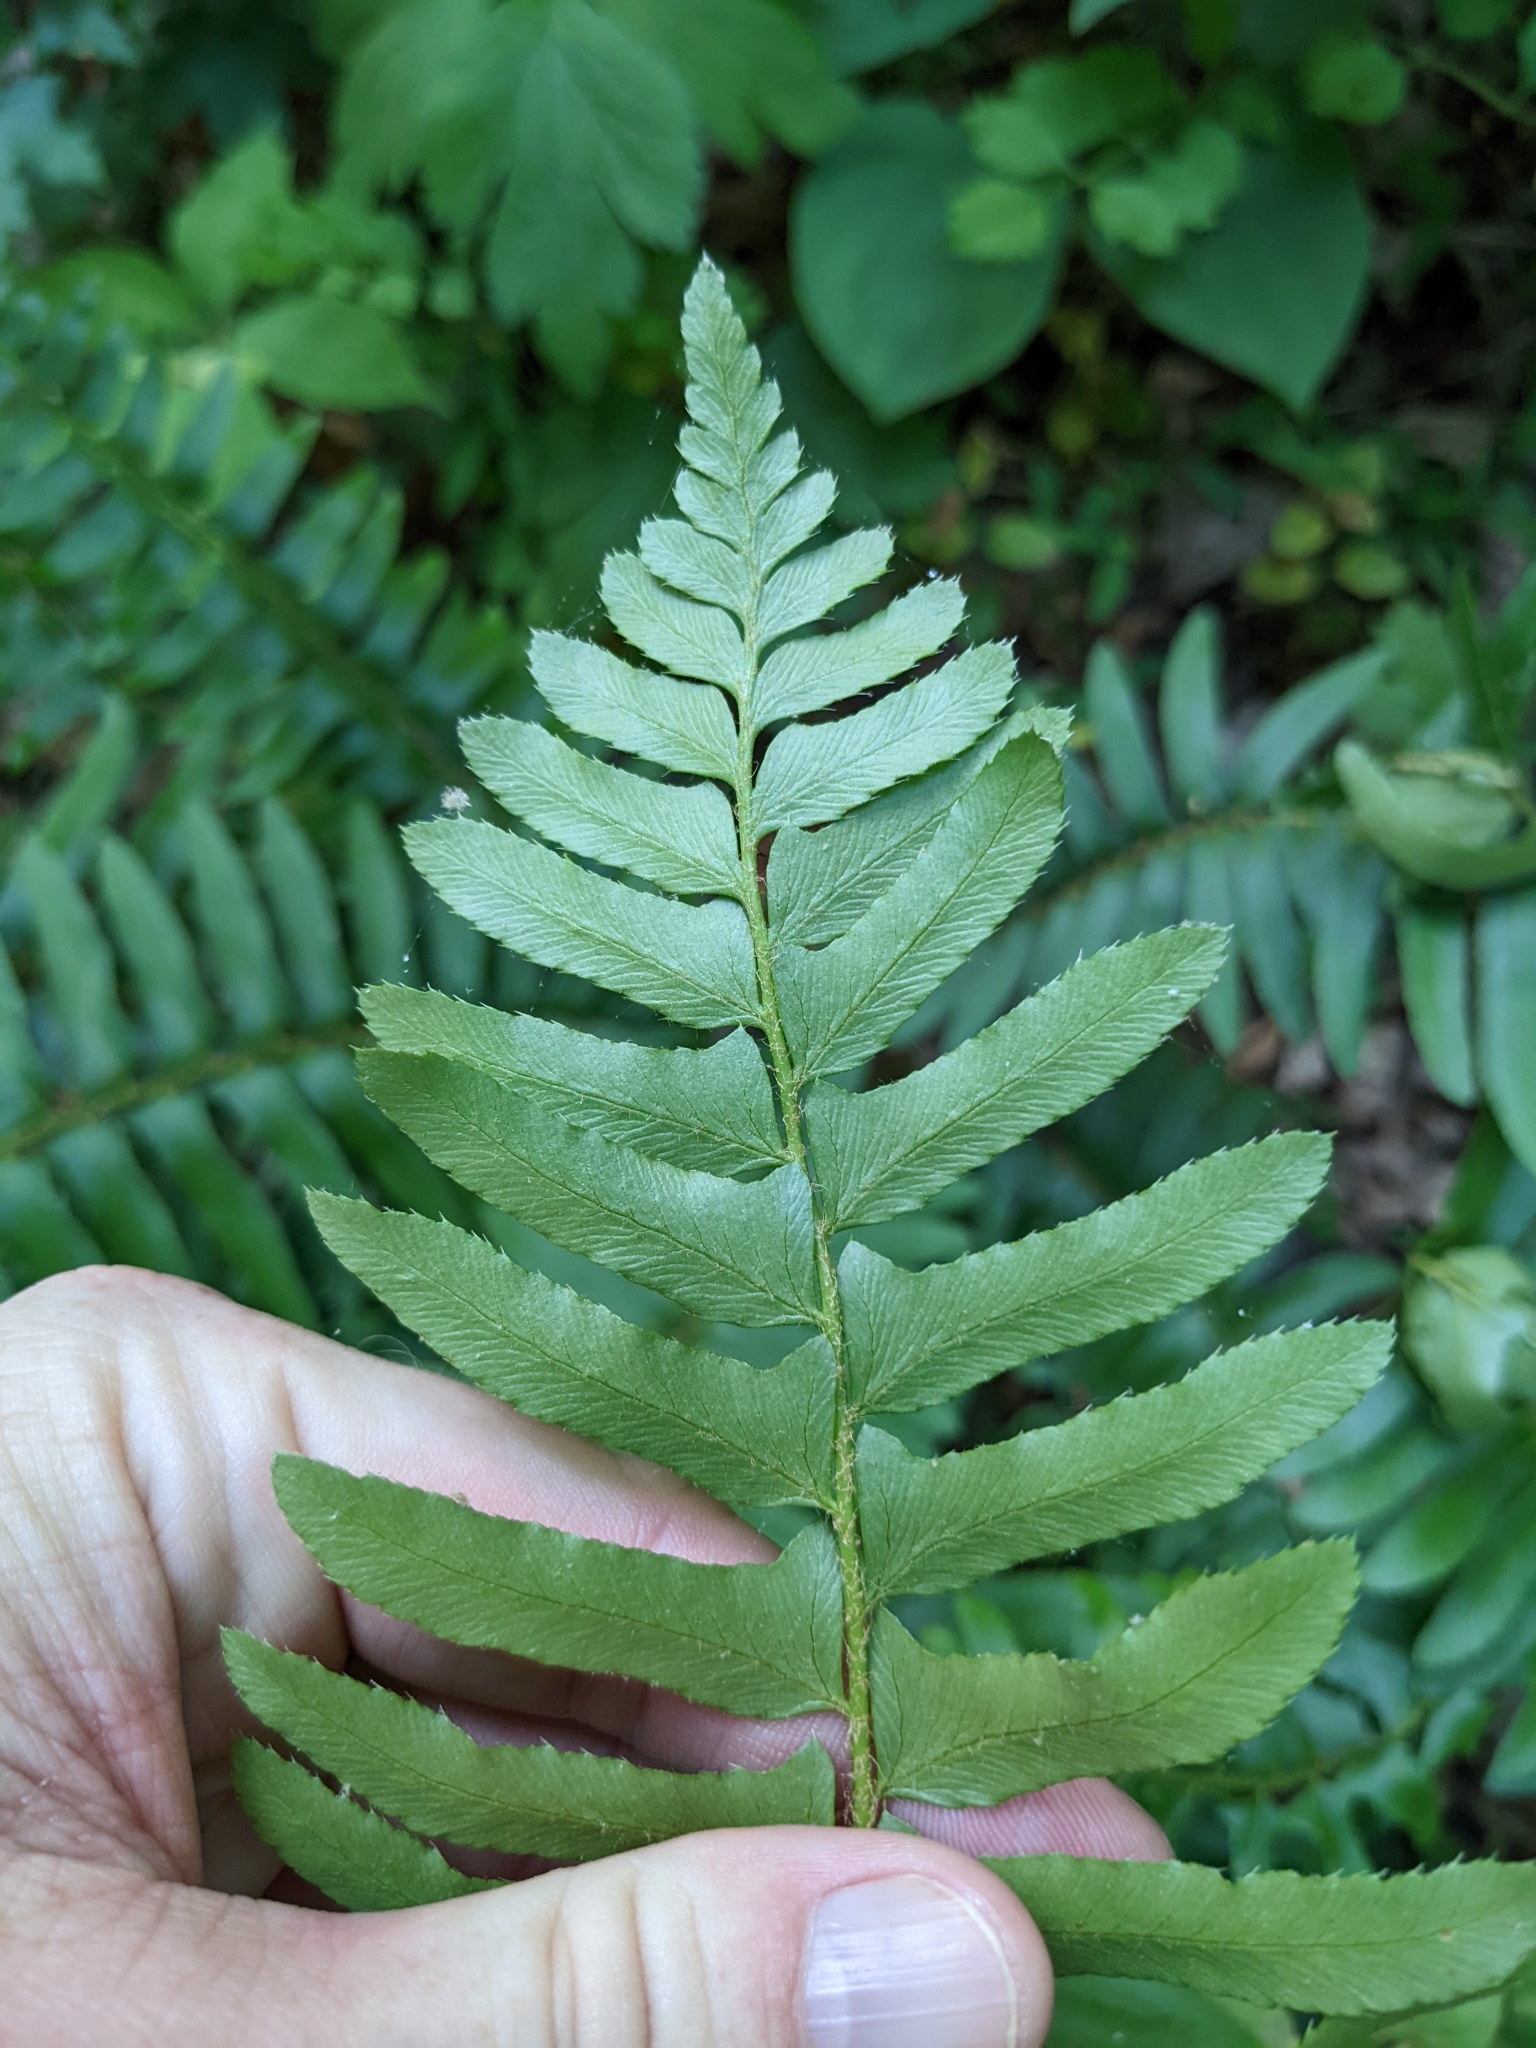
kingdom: Plantae
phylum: Tracheophyta
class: Polypodiopsida
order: Polypodiales
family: Dryopteridaceae
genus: Polystichum
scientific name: Polystichum acrostichoides
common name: Christmas fern
